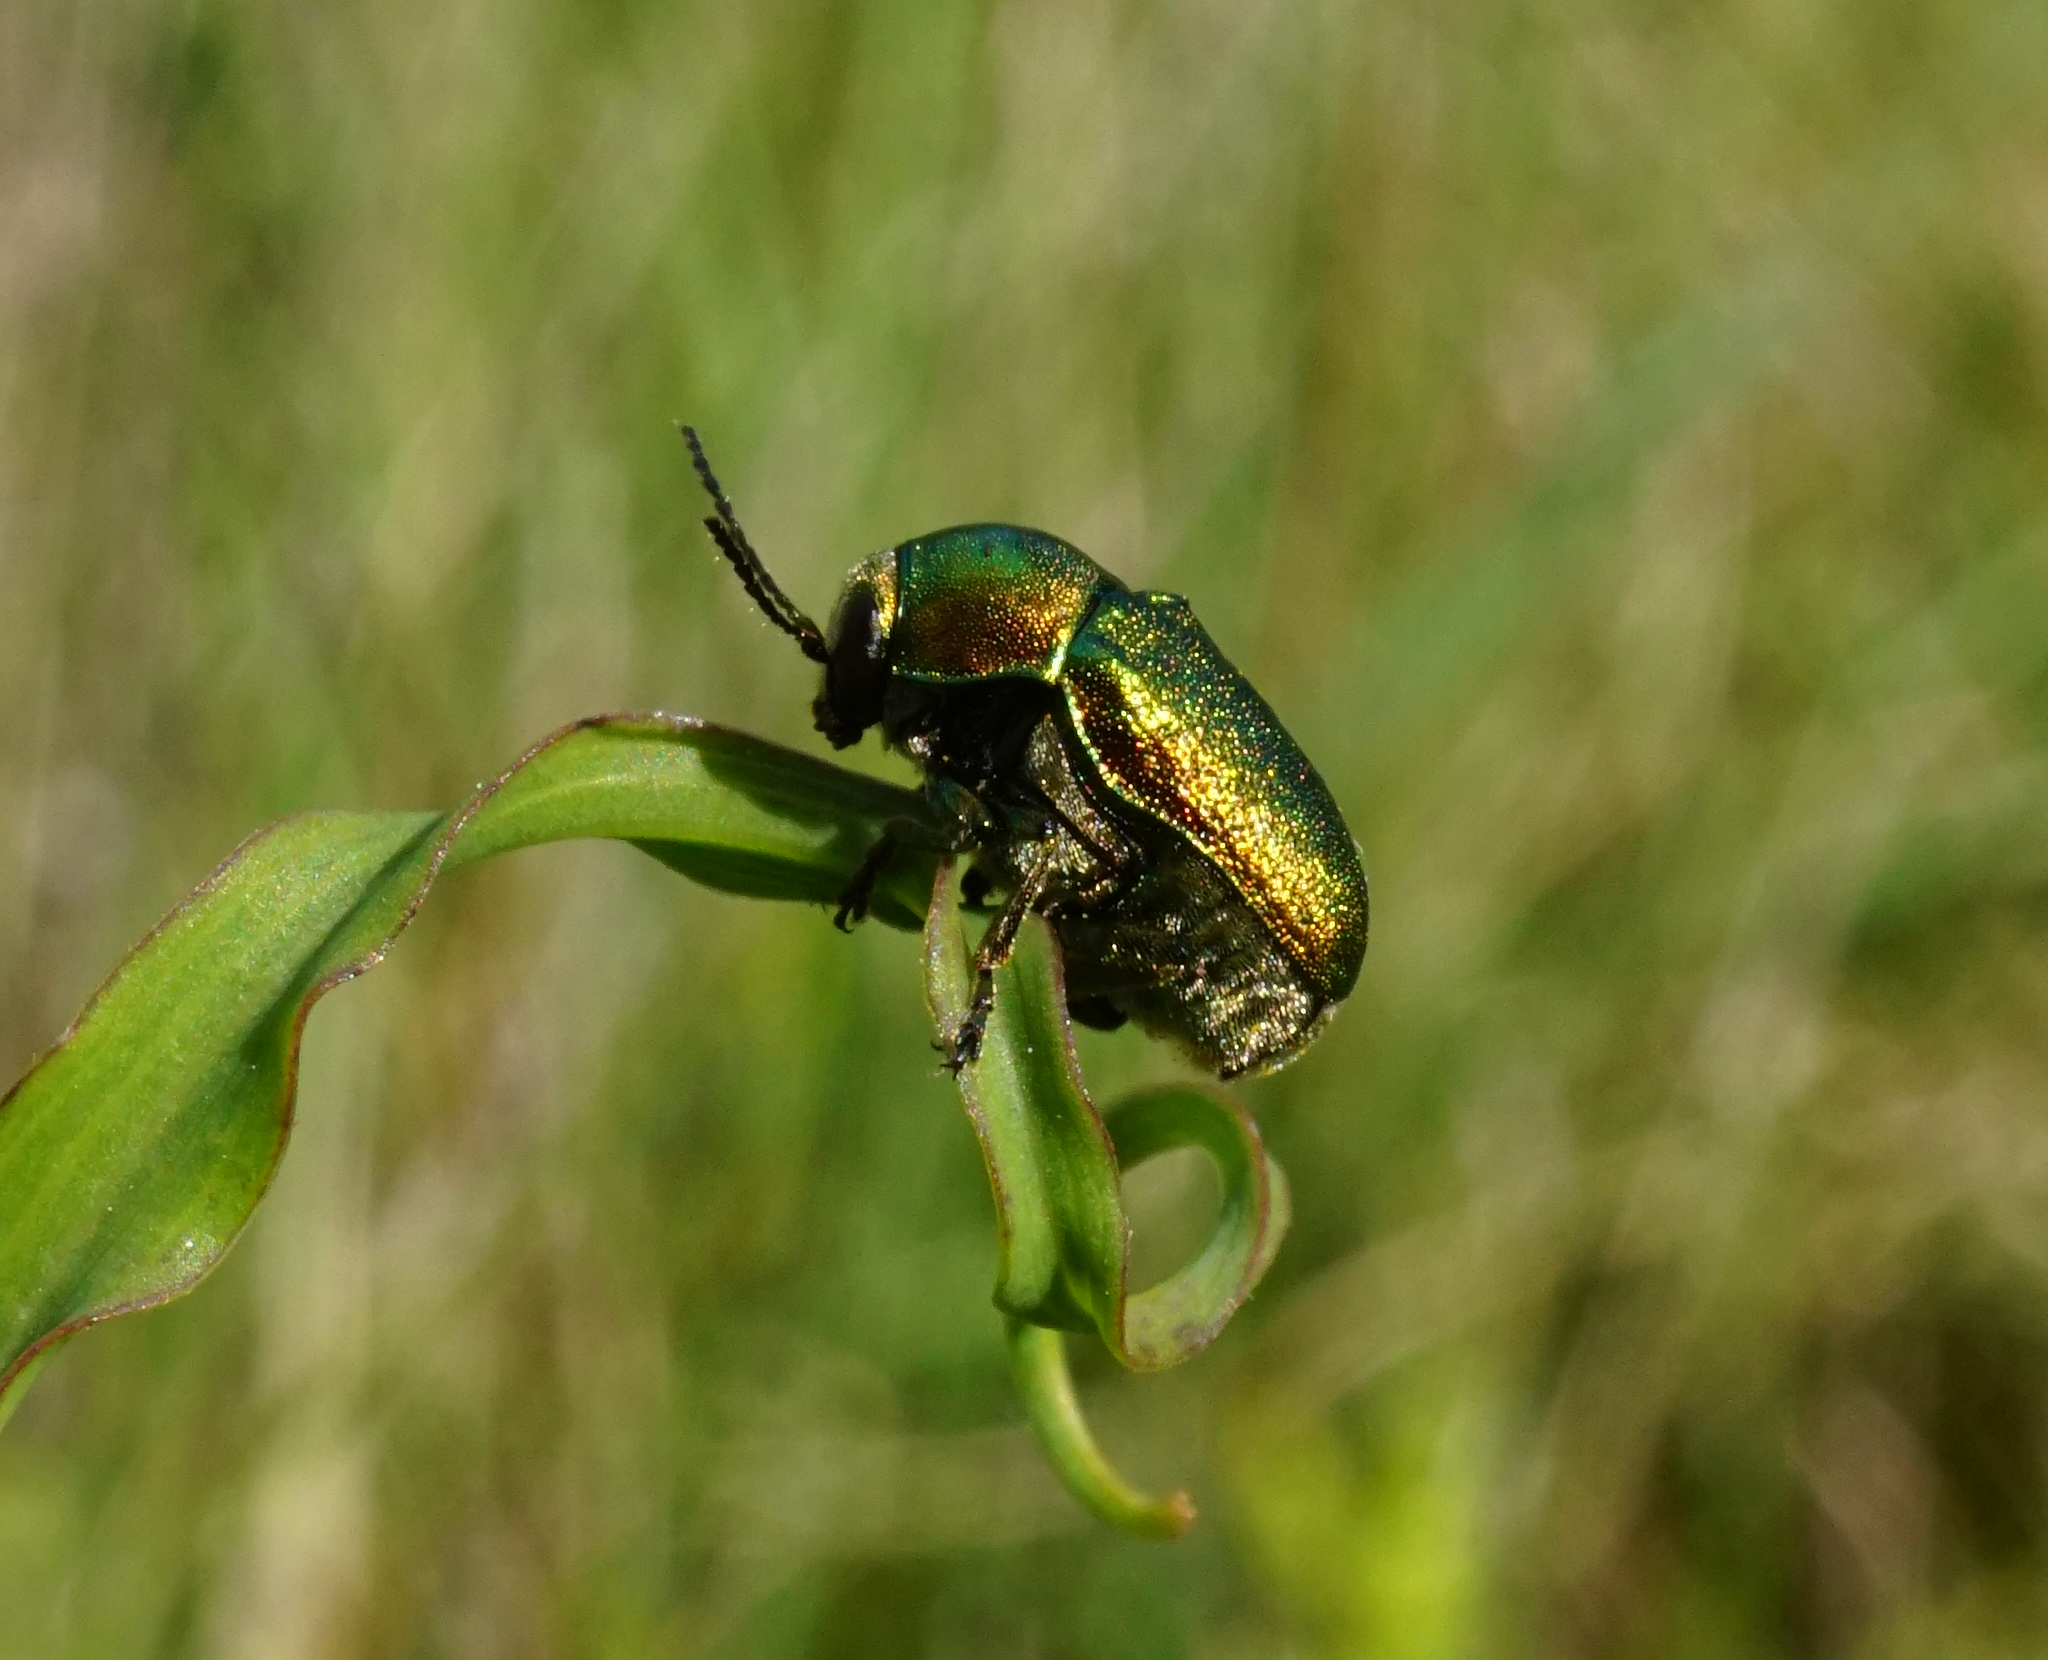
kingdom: Animalia
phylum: Arthropoda
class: Insecta
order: Coleoptera
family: Chrysomelidae
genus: Cryptocephalus
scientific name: Cryptocephalus
